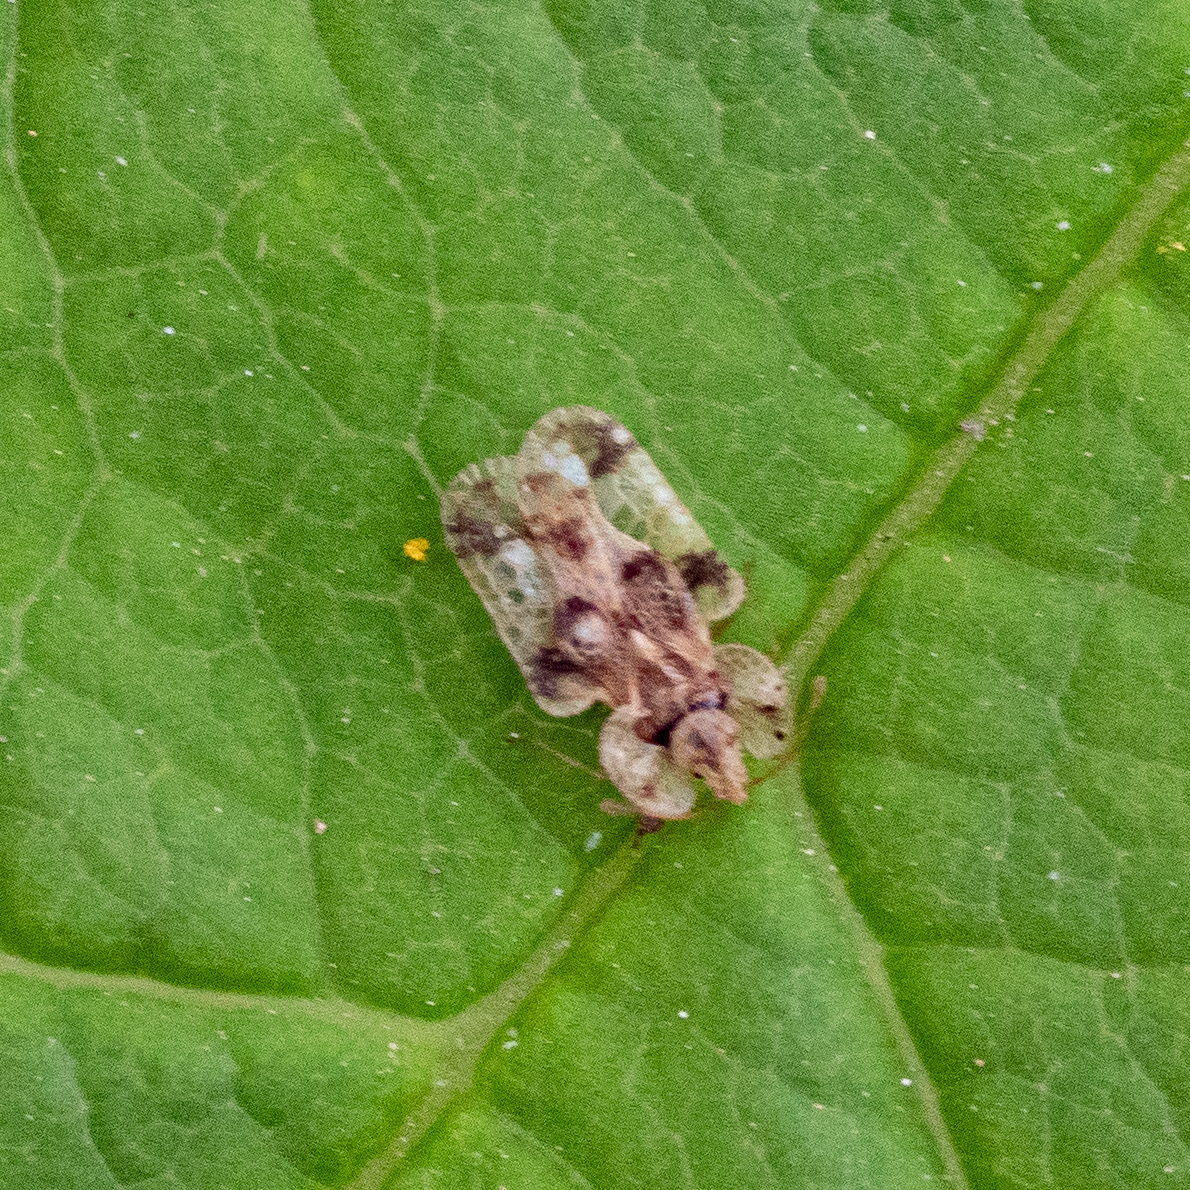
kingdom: Animalia
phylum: Arthropoda
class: Insecta
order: Hemiptera
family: Tingidae
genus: Corythucha
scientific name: Corythucha arcuata
